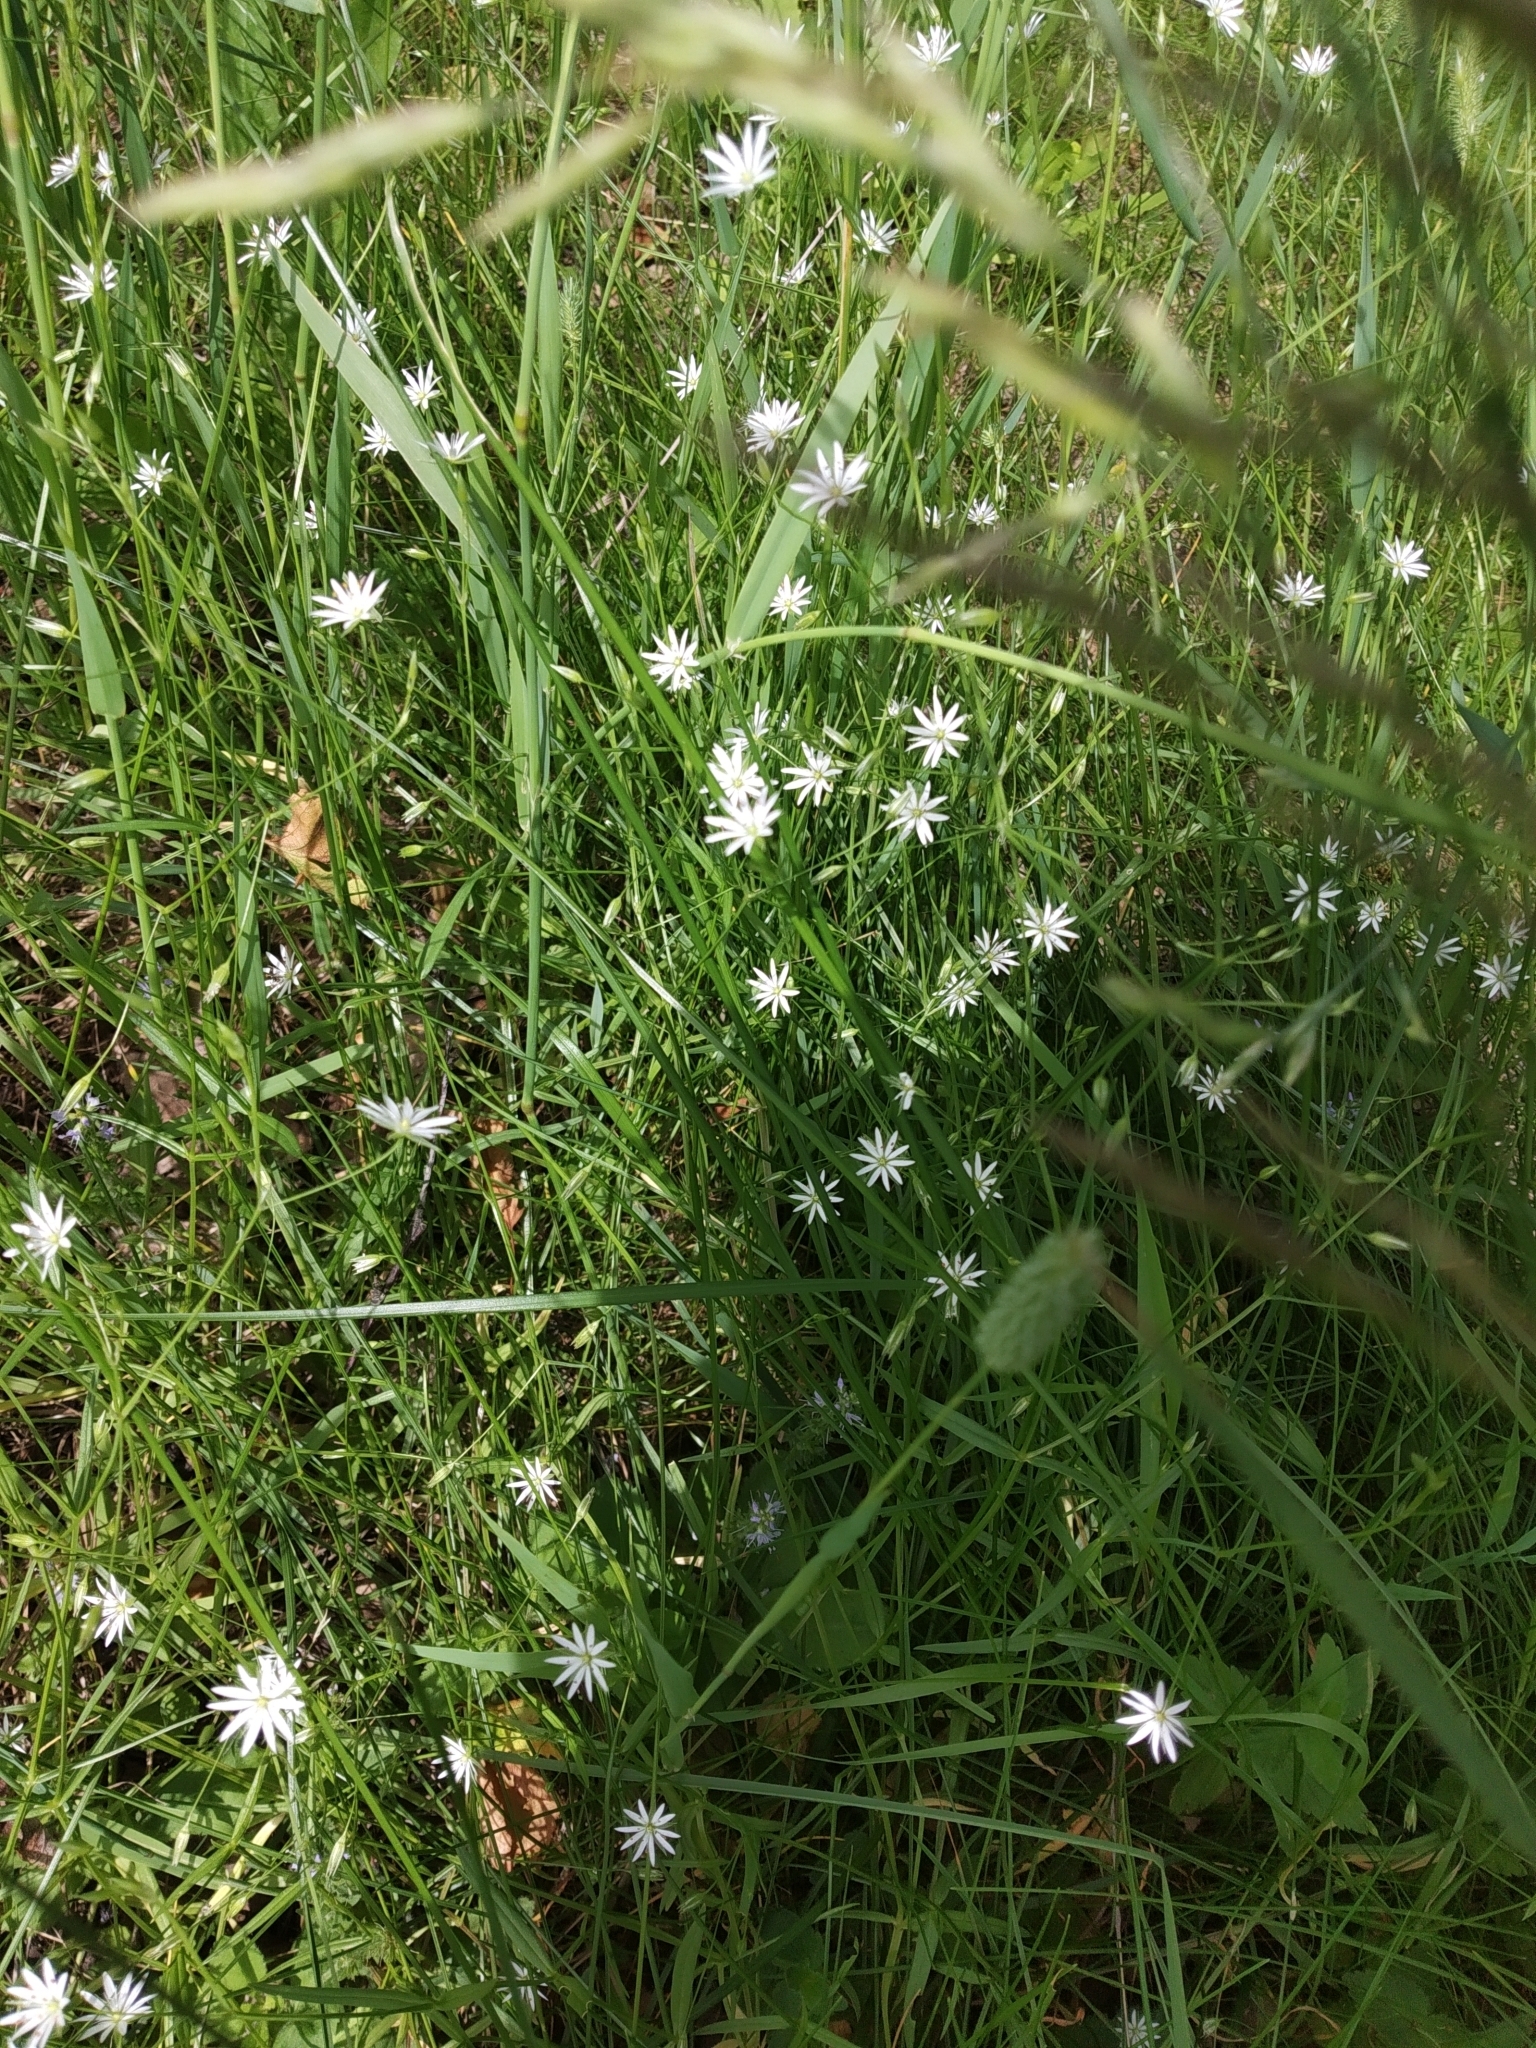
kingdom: Plantae
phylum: Tracheophyta
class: Magnoliopsida
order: Caryophyllales
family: Caryophyllaceae
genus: Stellaria
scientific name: Stellaria graminea
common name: Grass-like starwort
